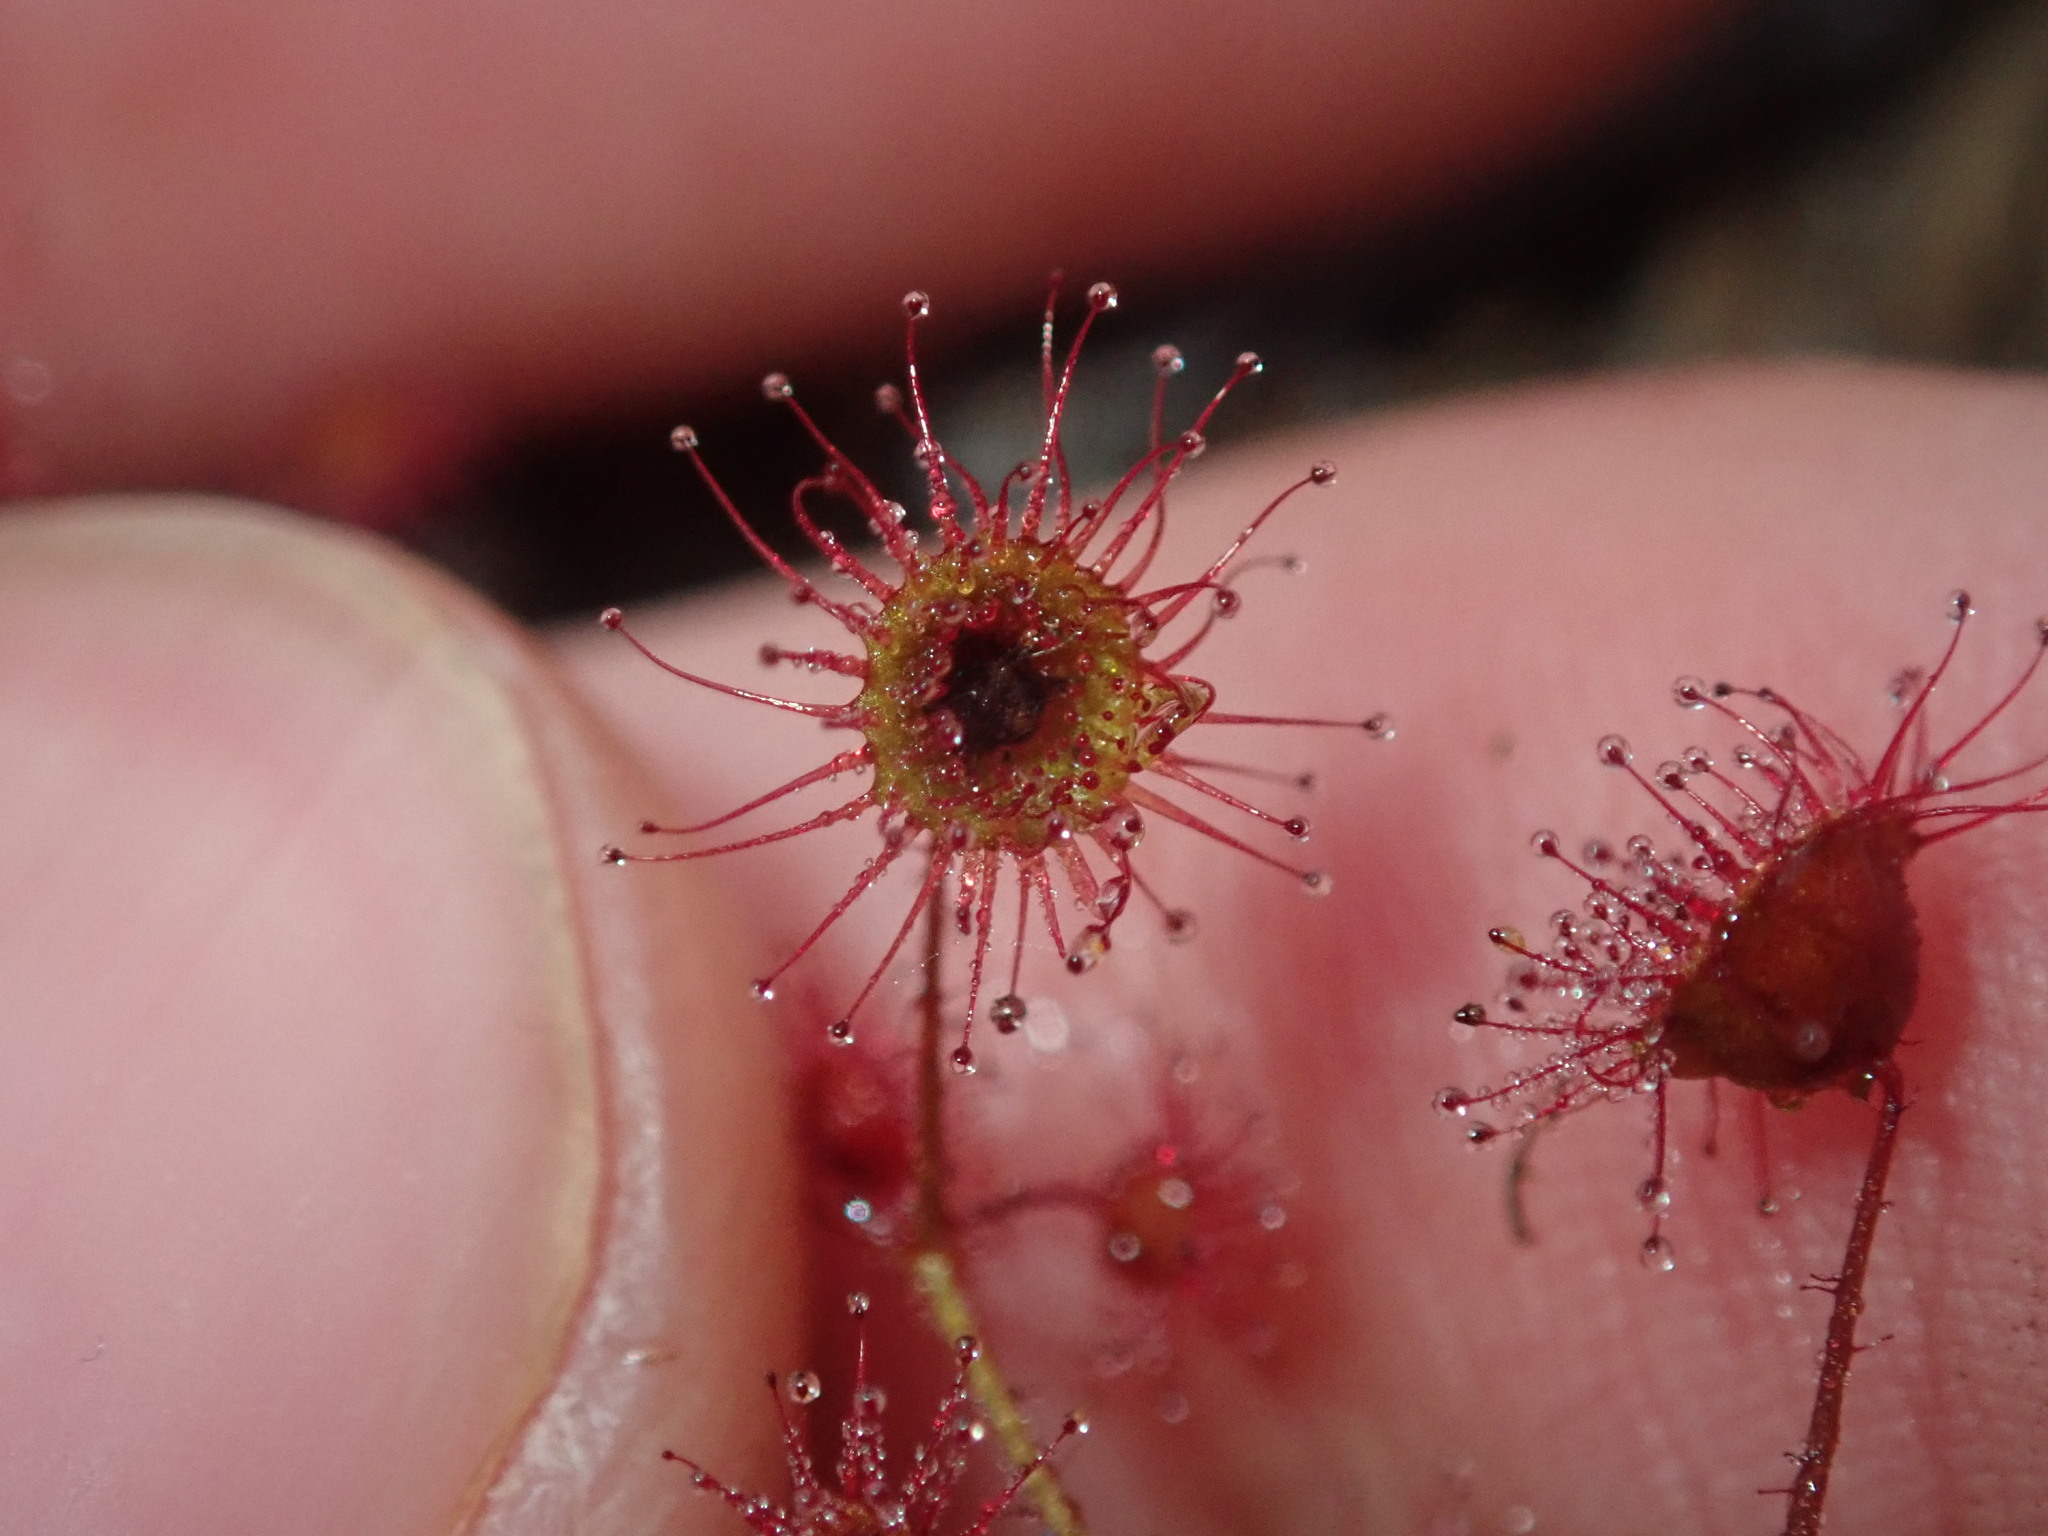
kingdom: Plantae
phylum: Tracheophyta
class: Magnoliopsida
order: Caryophyllales
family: Droseraceae
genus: Drosera
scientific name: Drosera macrantha
